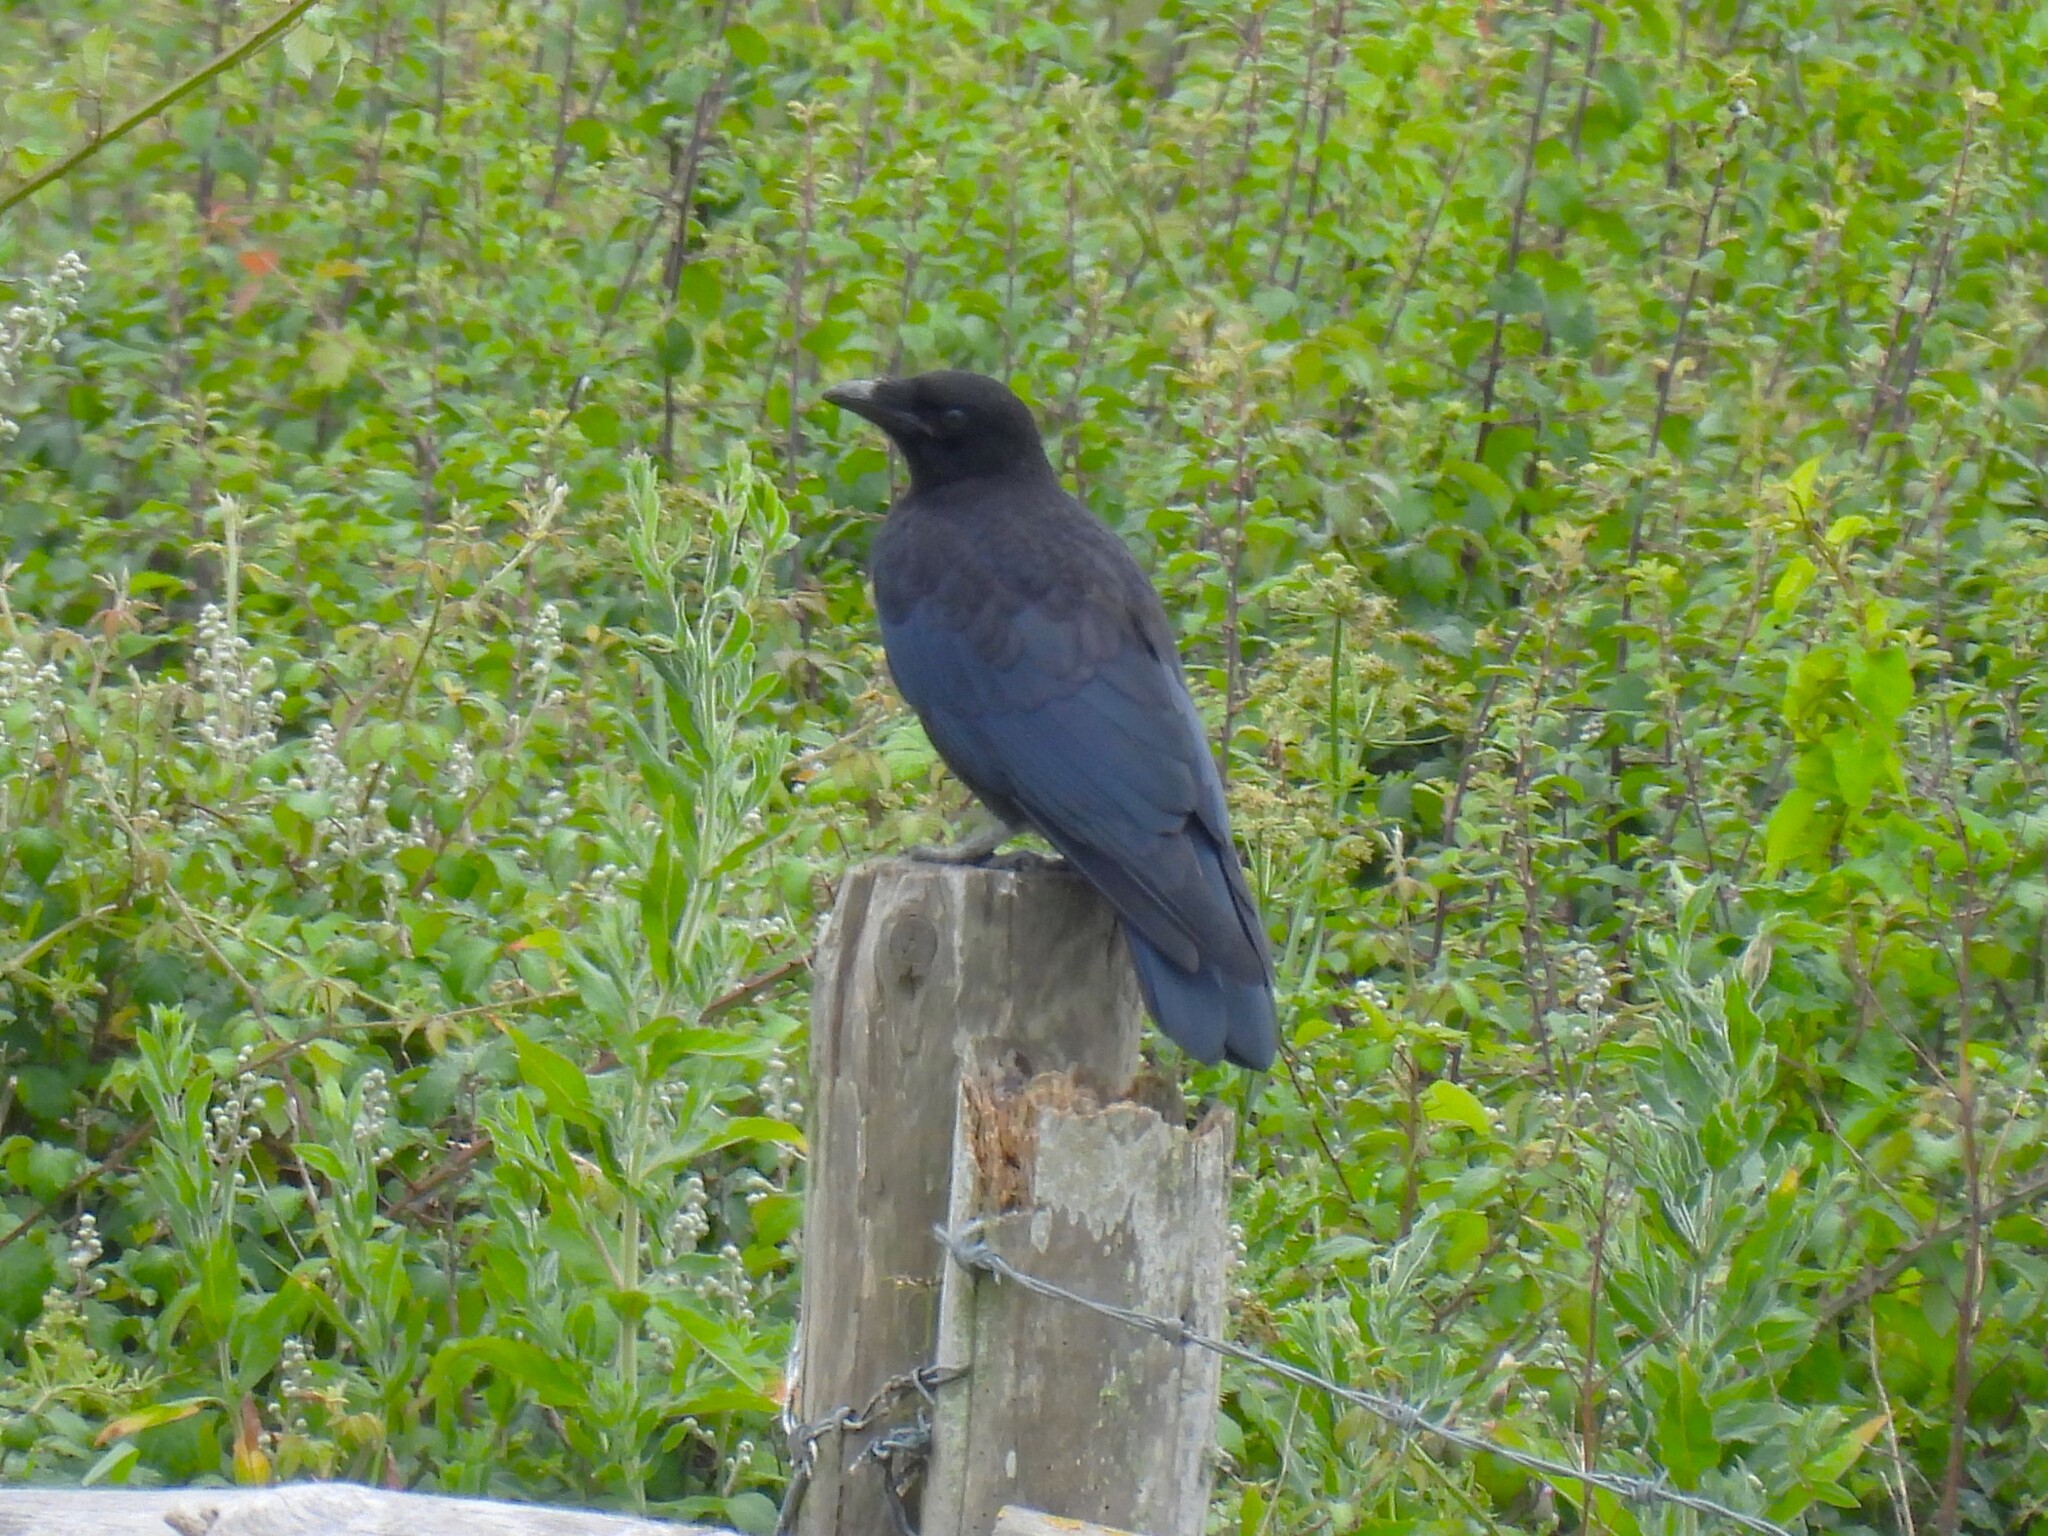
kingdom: Animalia
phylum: Chordata
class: Aves
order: Passeriformes
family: Corvidae
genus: Corvus
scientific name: Corvus corone
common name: Carrion crow
